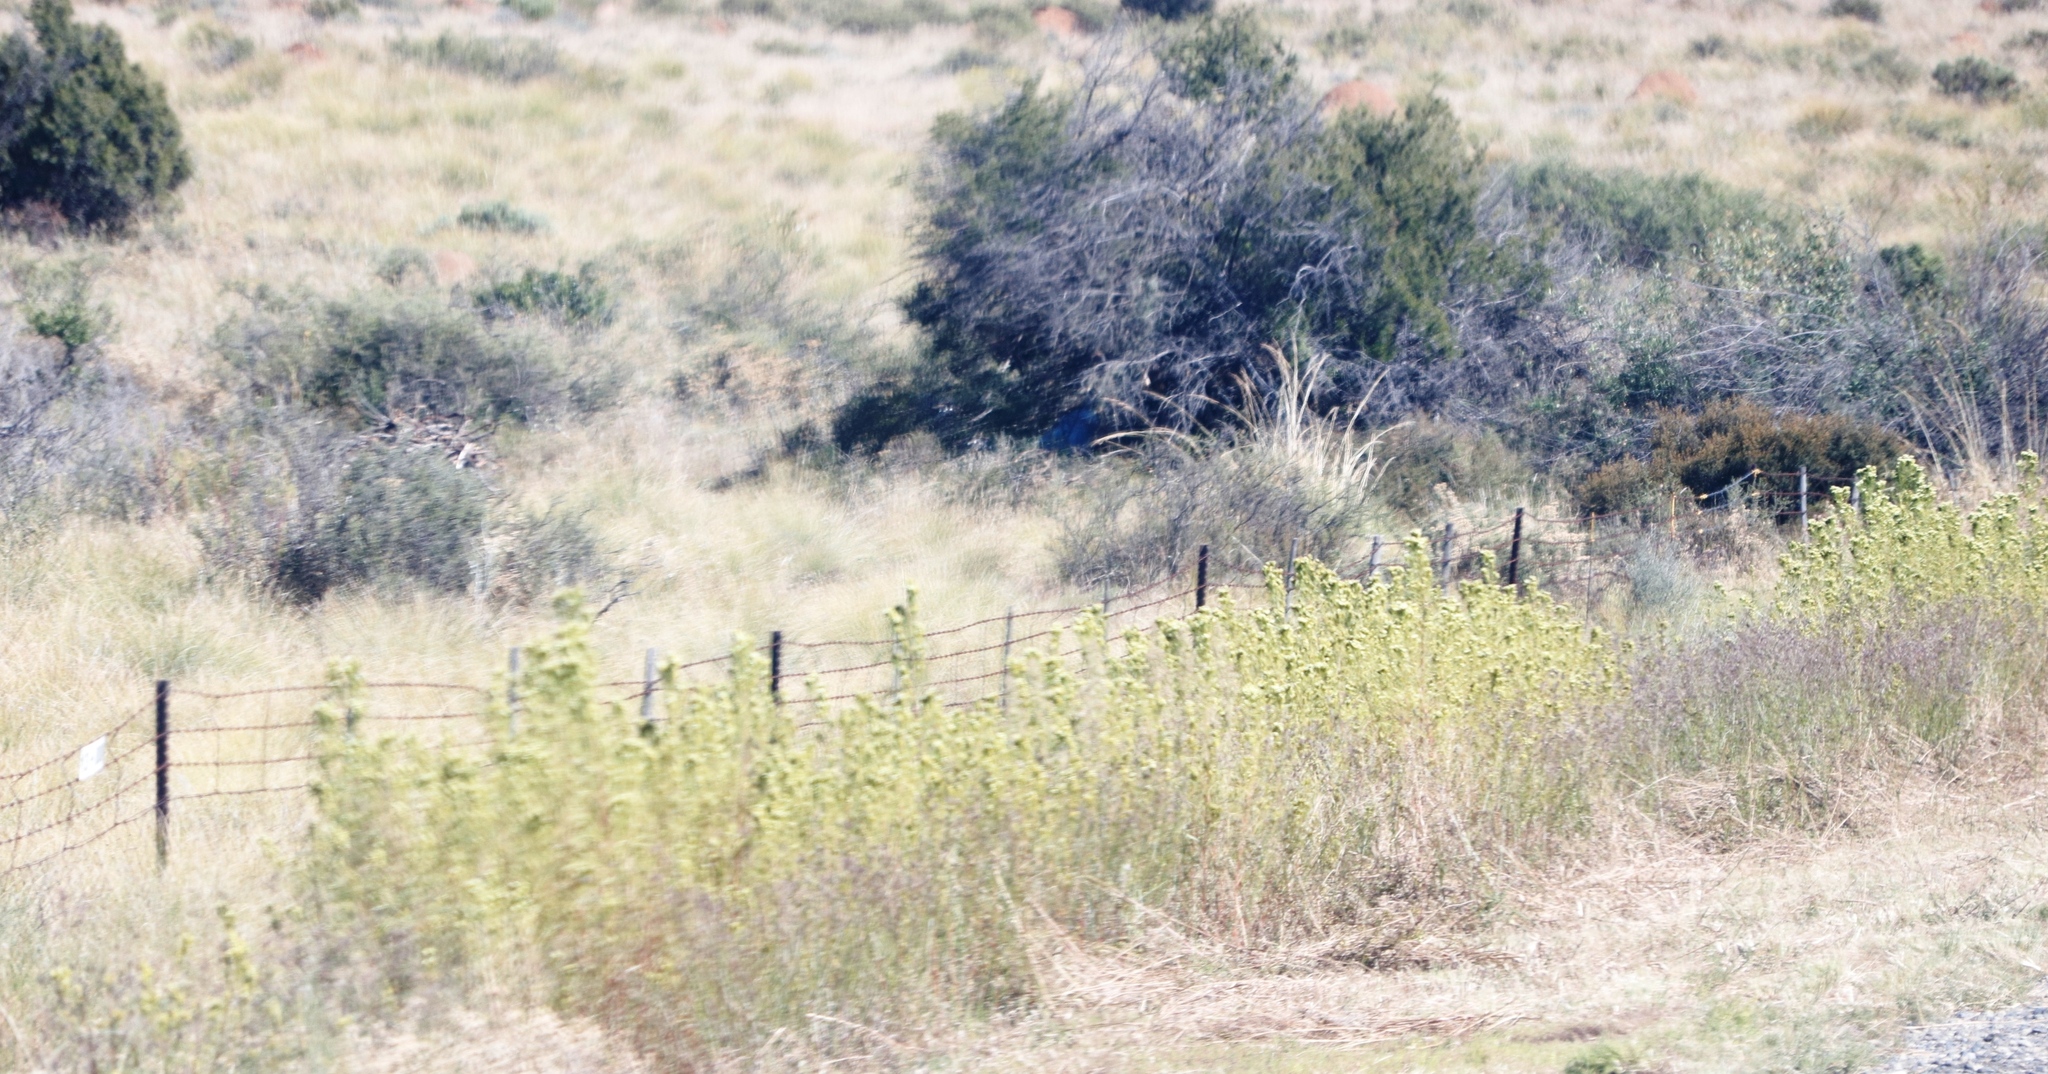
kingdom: Plantae
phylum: Tracheophyta
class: Magnoliopsida
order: Asterales
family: Asteraceae
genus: Tagetes
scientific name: Tagetes minuta
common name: Muster john henry
